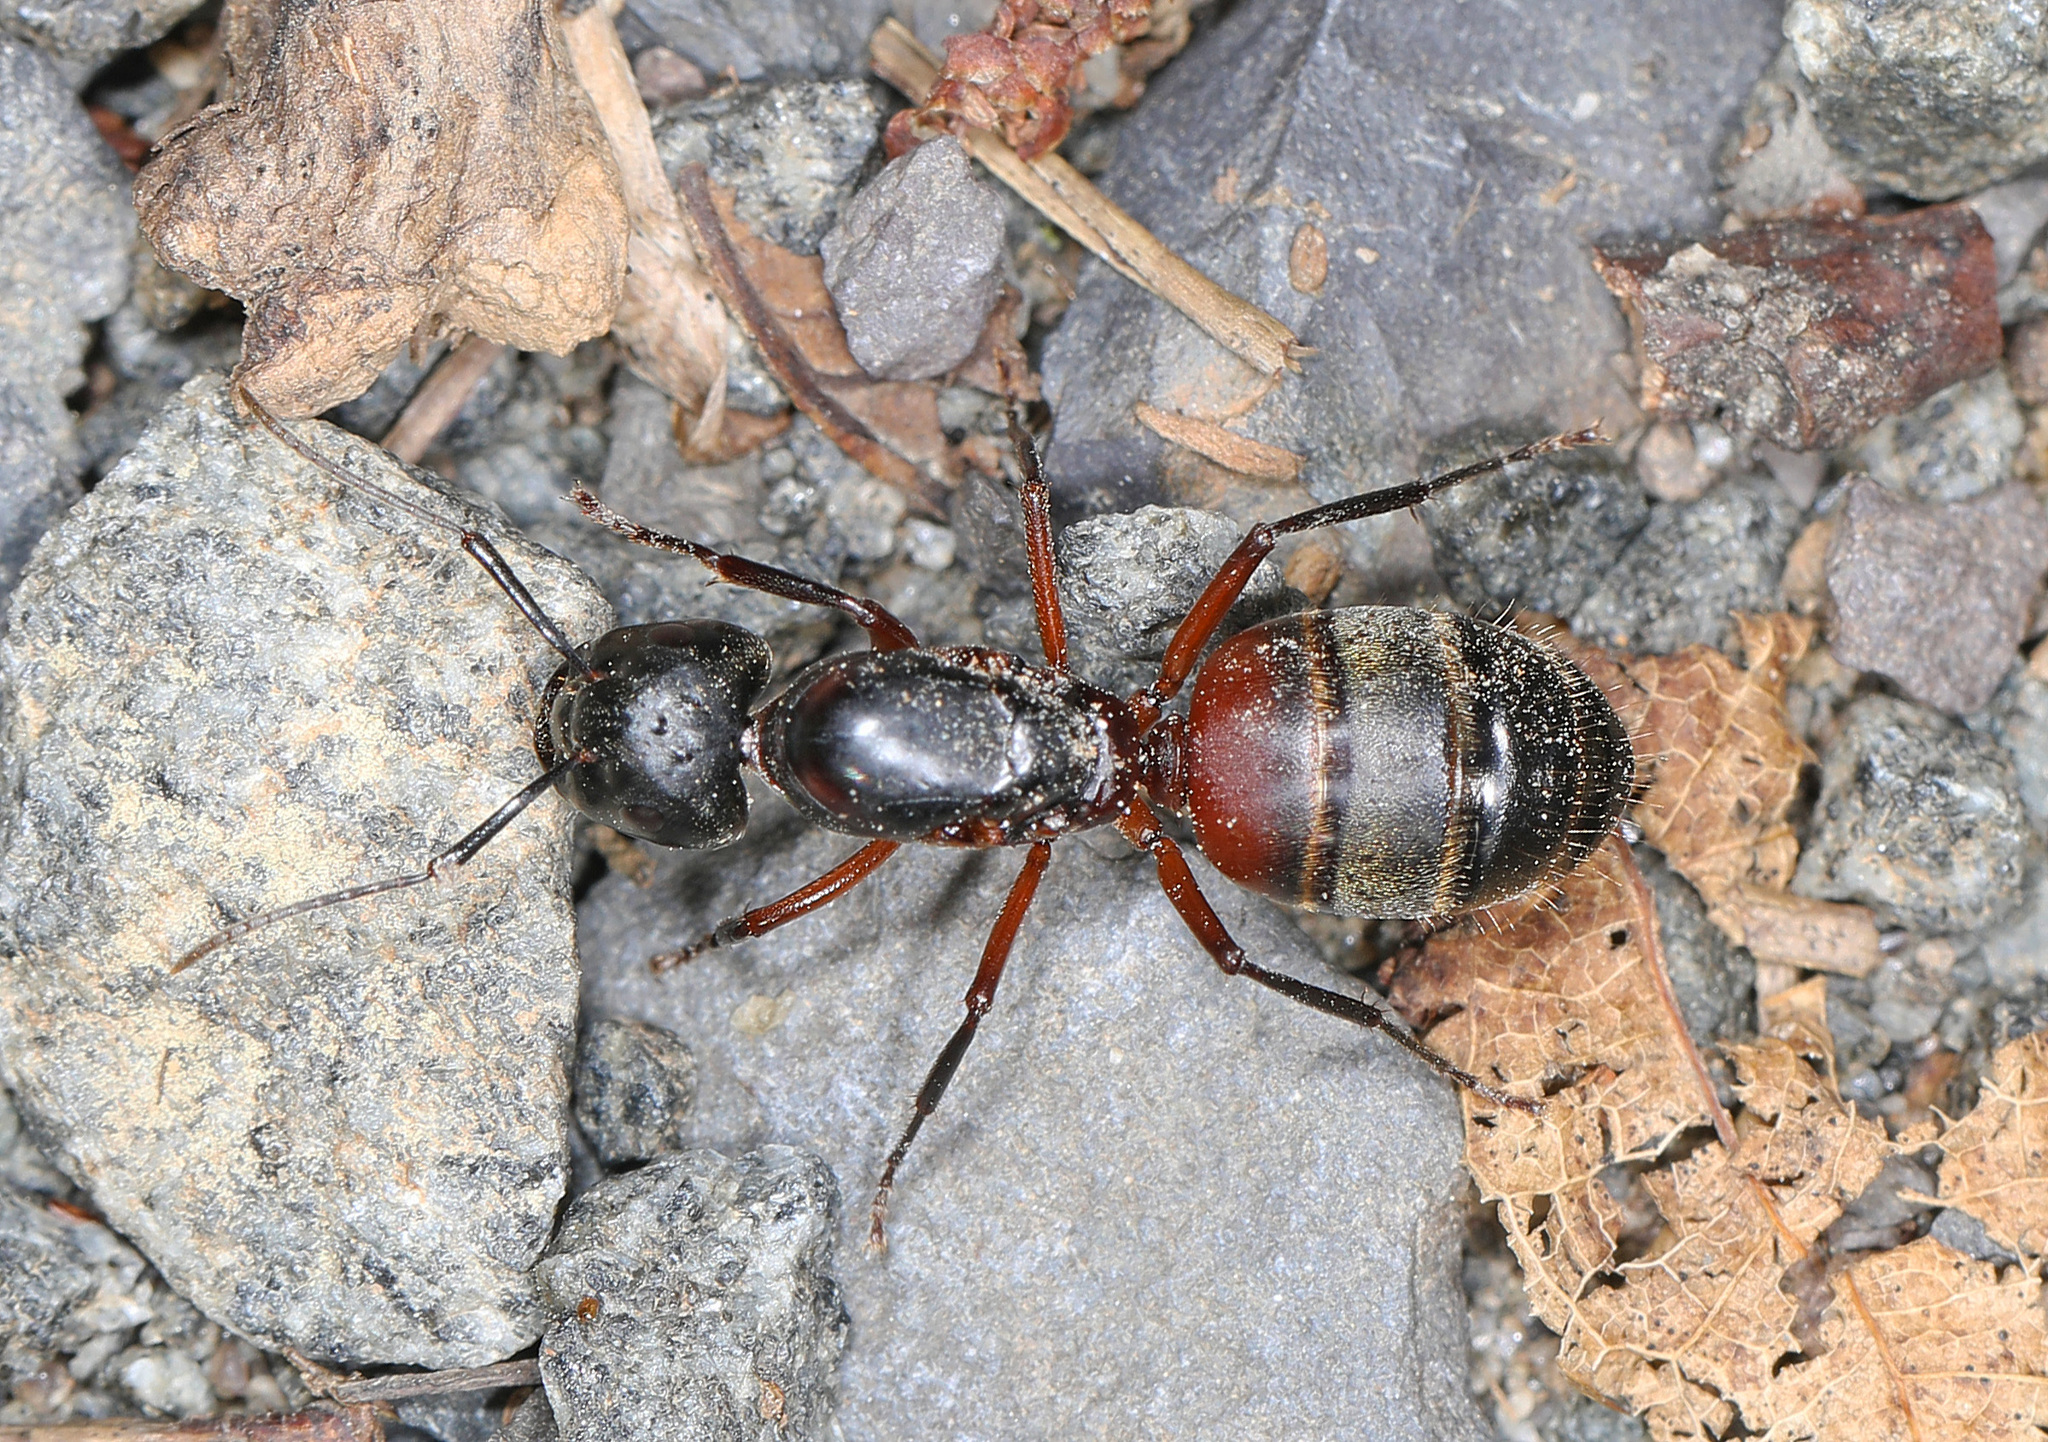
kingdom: Animalia
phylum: Arthropoda
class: Insecta
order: Hymenoptera
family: Formicidae
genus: Camponotus
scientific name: Camponotus chromaiodes
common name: Red carpenter ant
